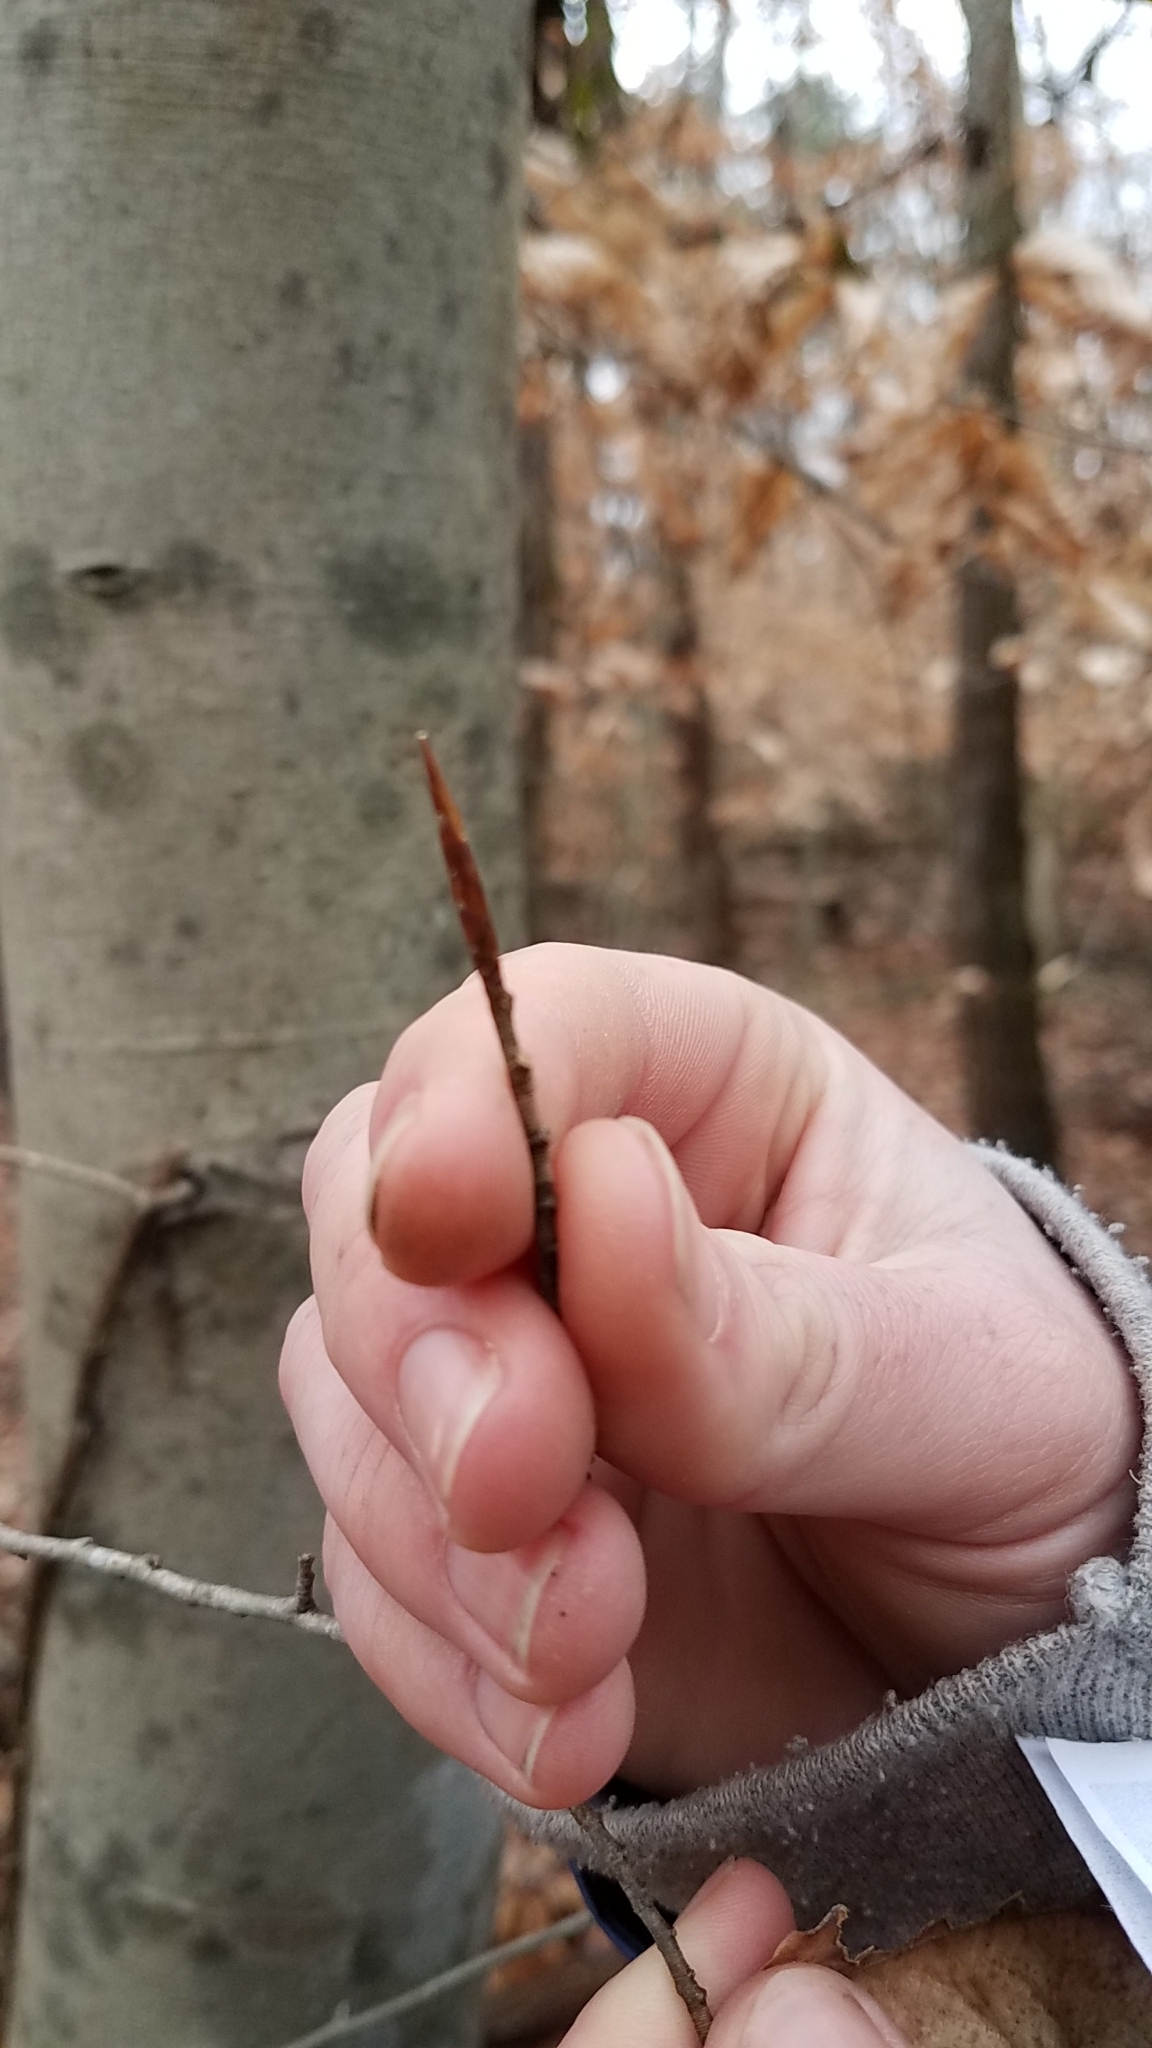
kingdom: Plantae
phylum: Tracheophyta
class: Magnoliopsida
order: Fagales
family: Fagaceae
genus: Fagus
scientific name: Fagus grandifolia
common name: American beech
